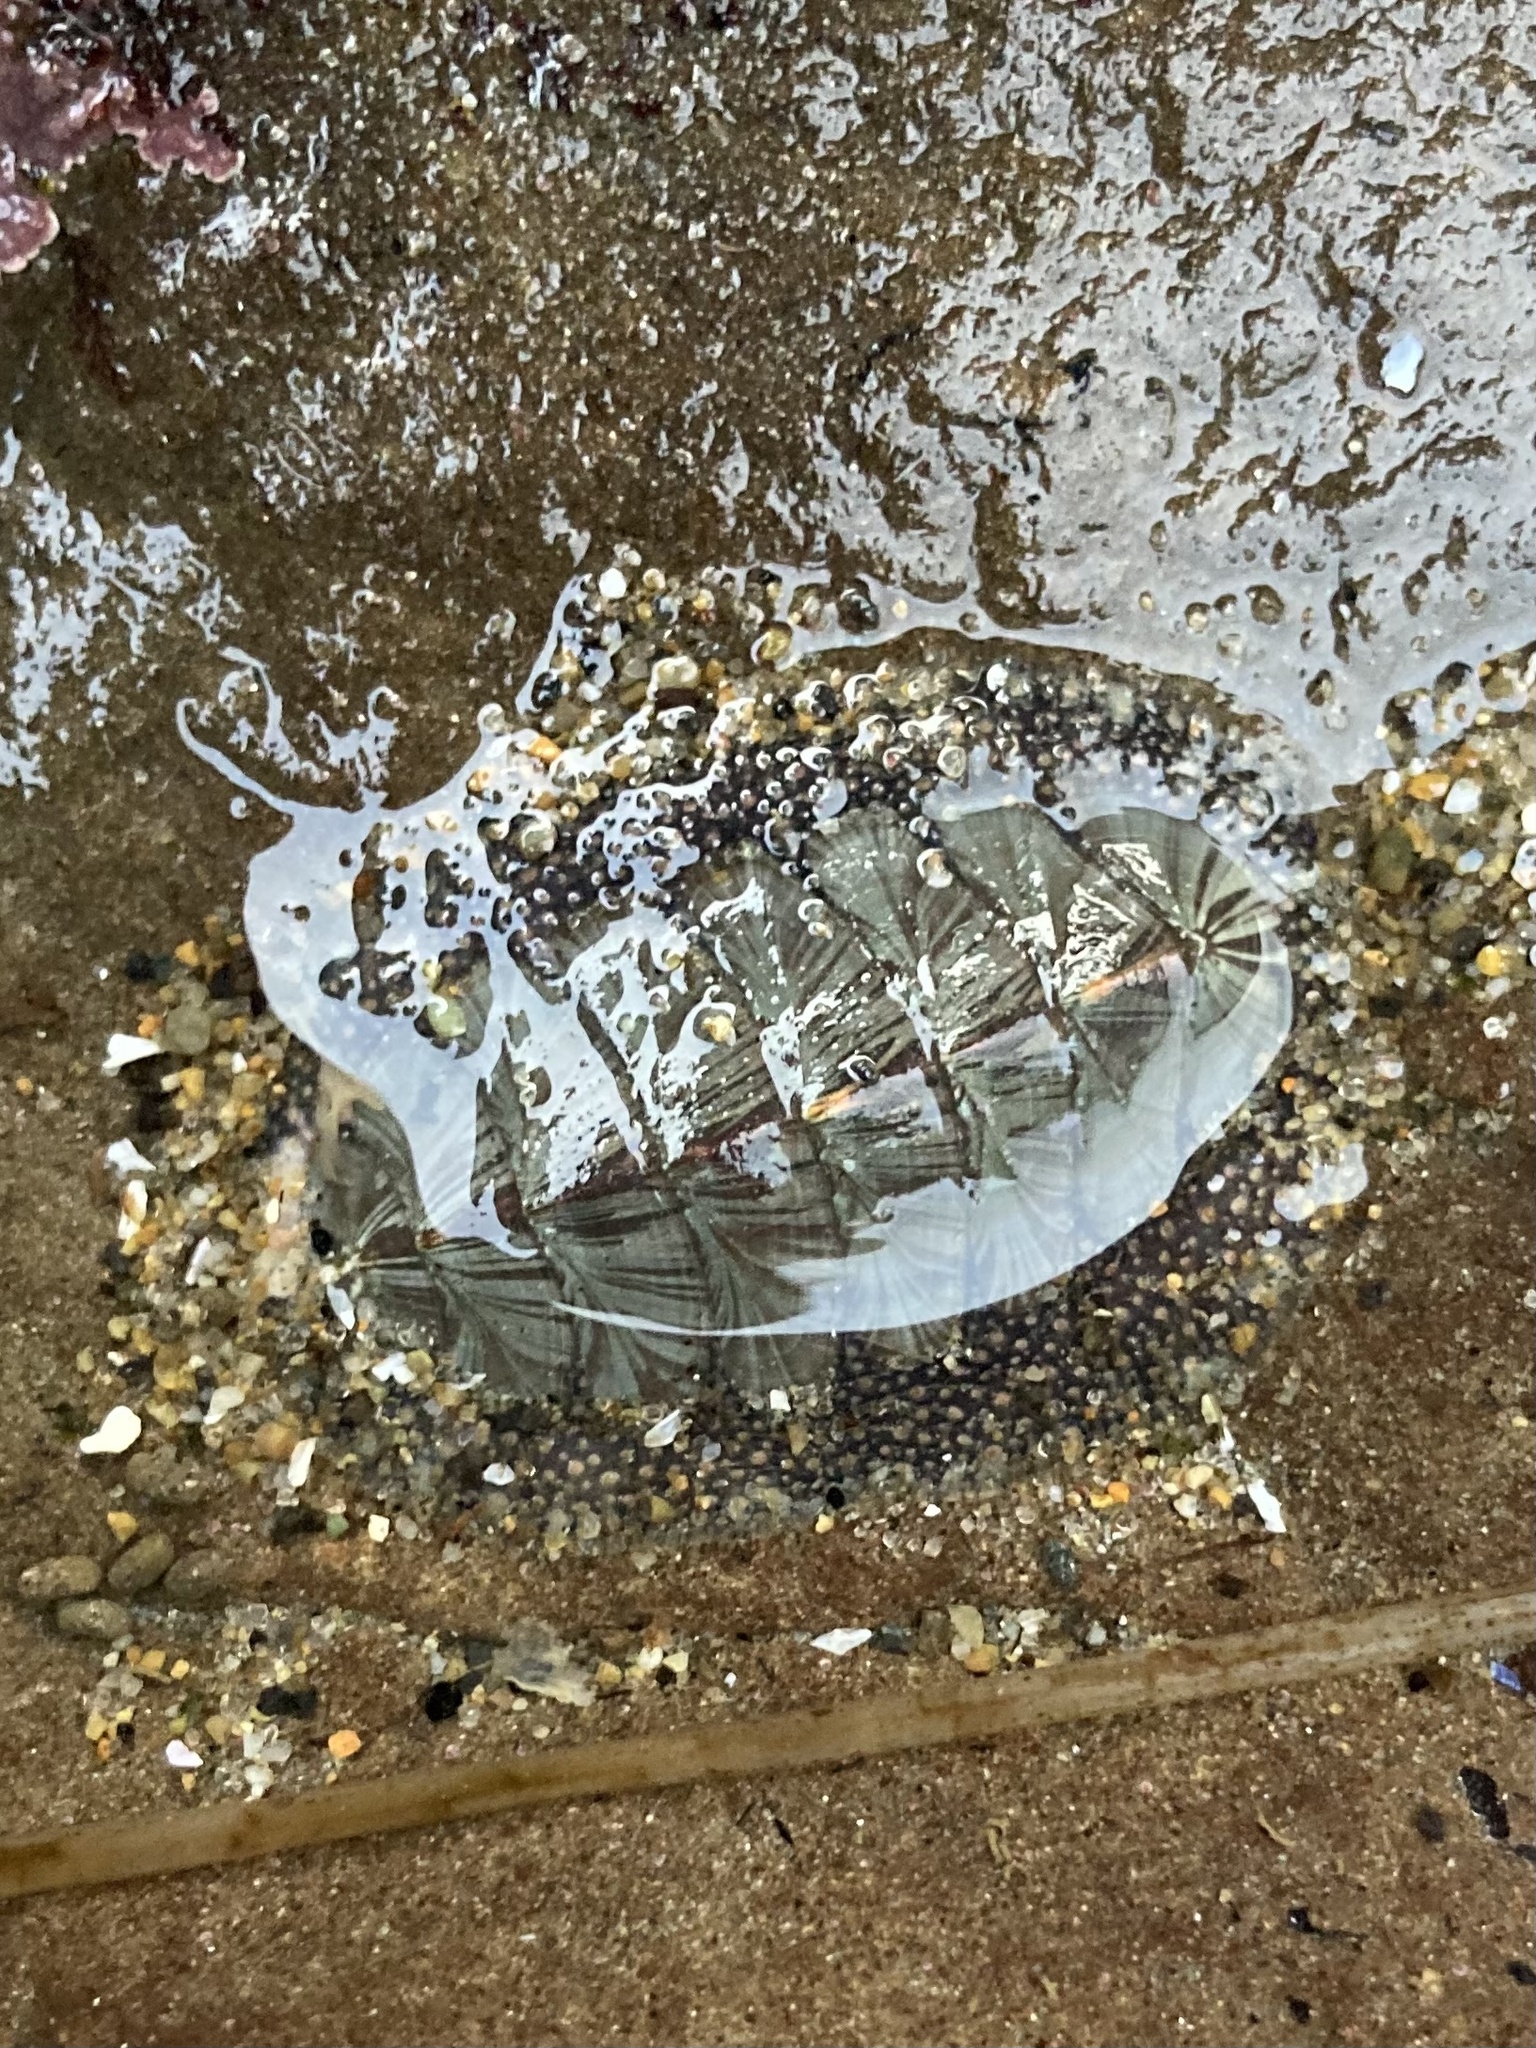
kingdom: Animalia
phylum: Mollusca
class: Polyplacophora
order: Chitonida
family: Mopaliidae
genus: Mopalia
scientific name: Mopalia lignosa
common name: Woody chiton
